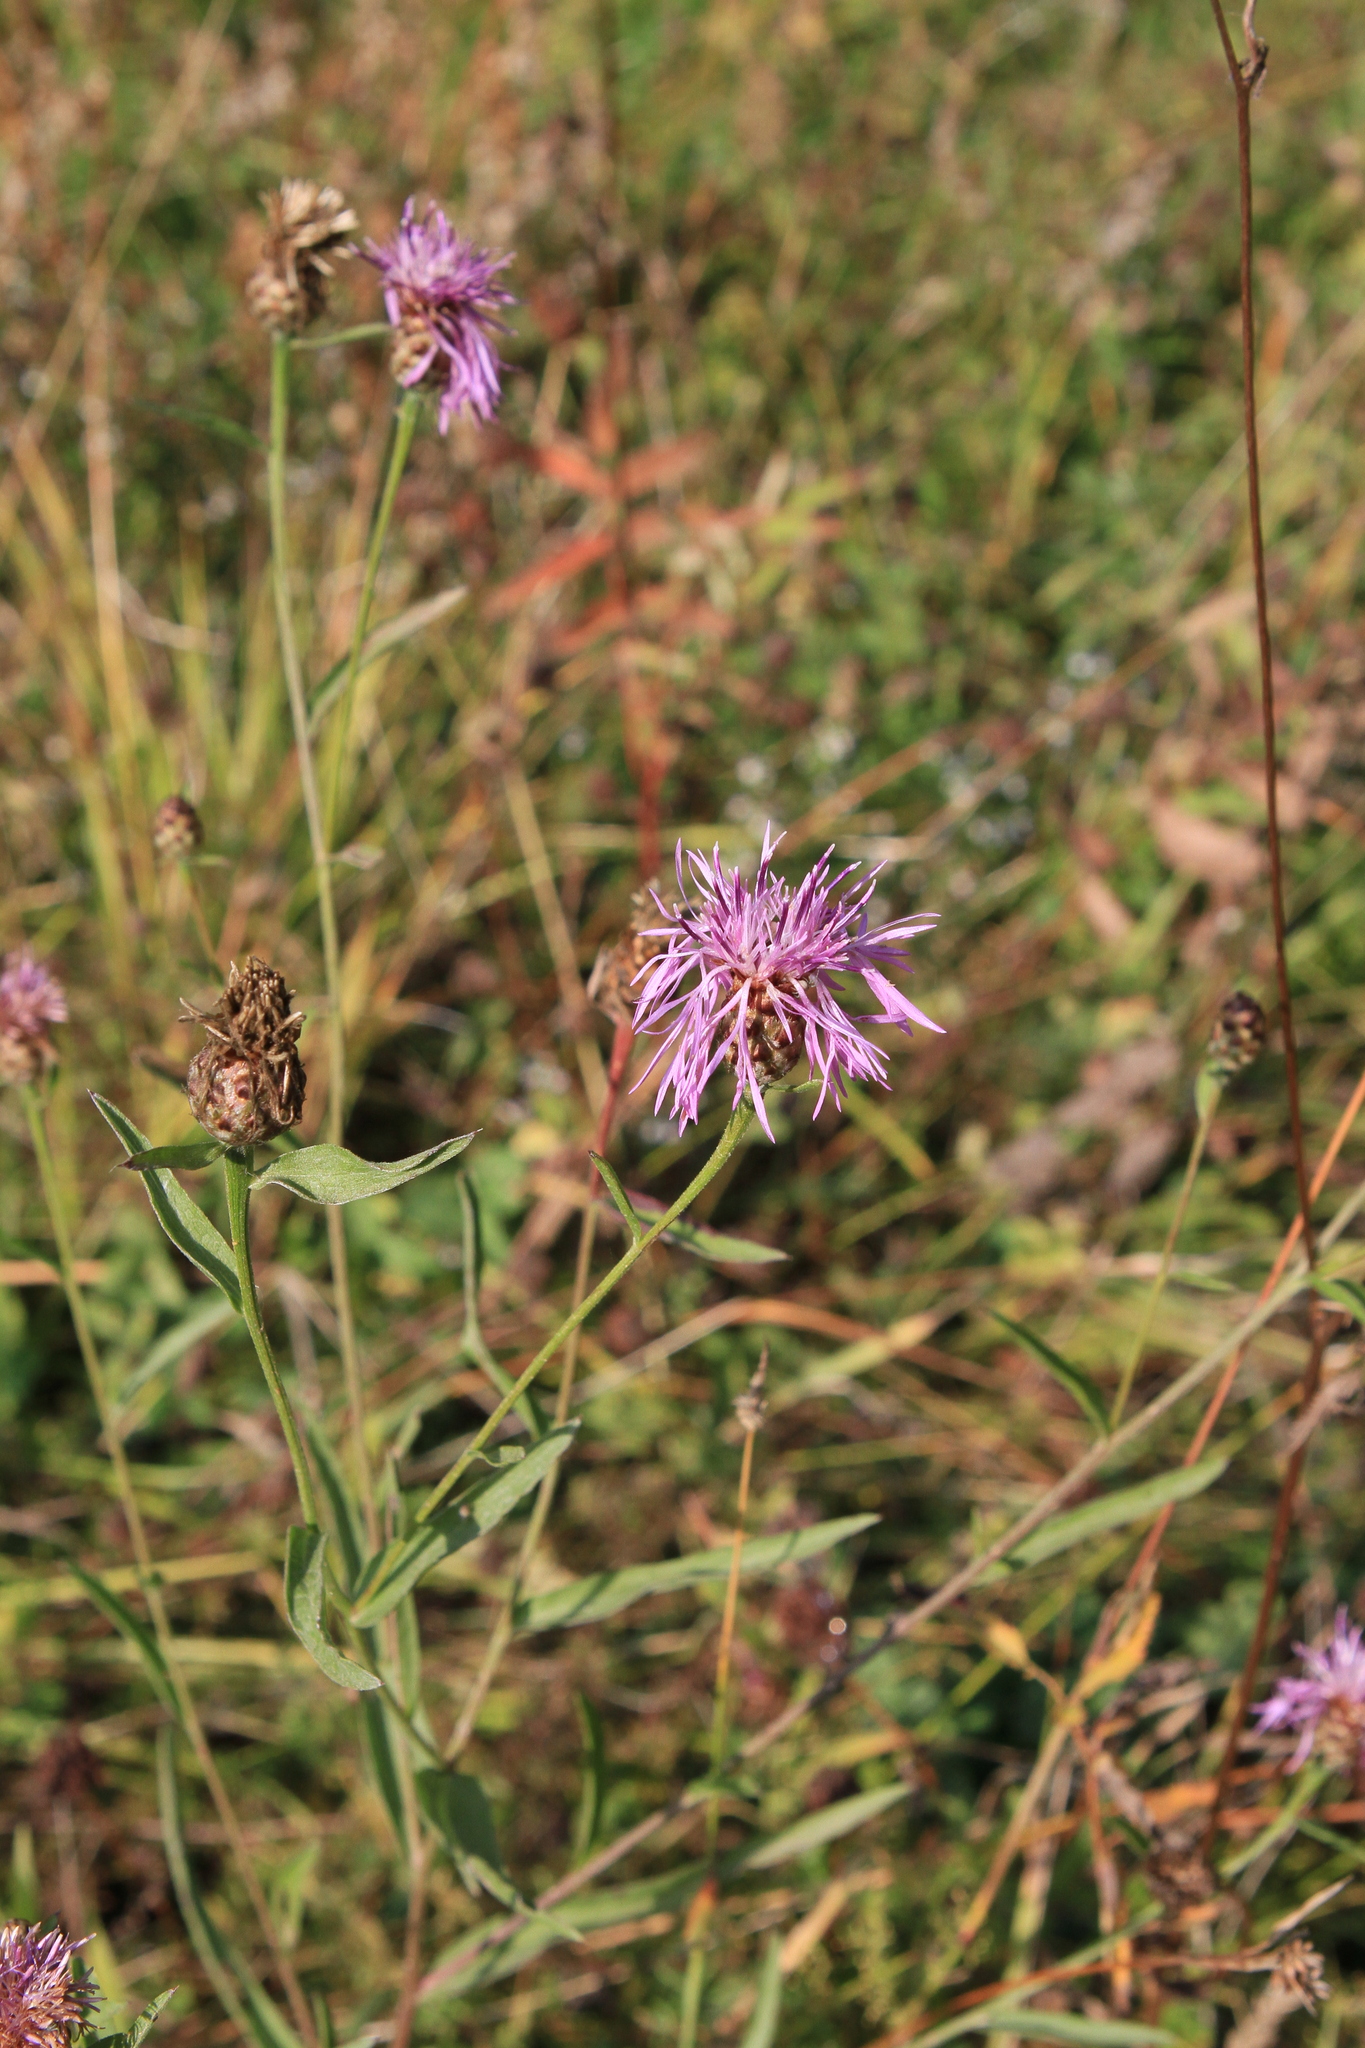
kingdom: Plantae
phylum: Tracheophyta
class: Magnoliopsida
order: Asterales
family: Asteraceae
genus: Centaurea
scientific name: Centaurea jacea
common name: Brown knapweed
